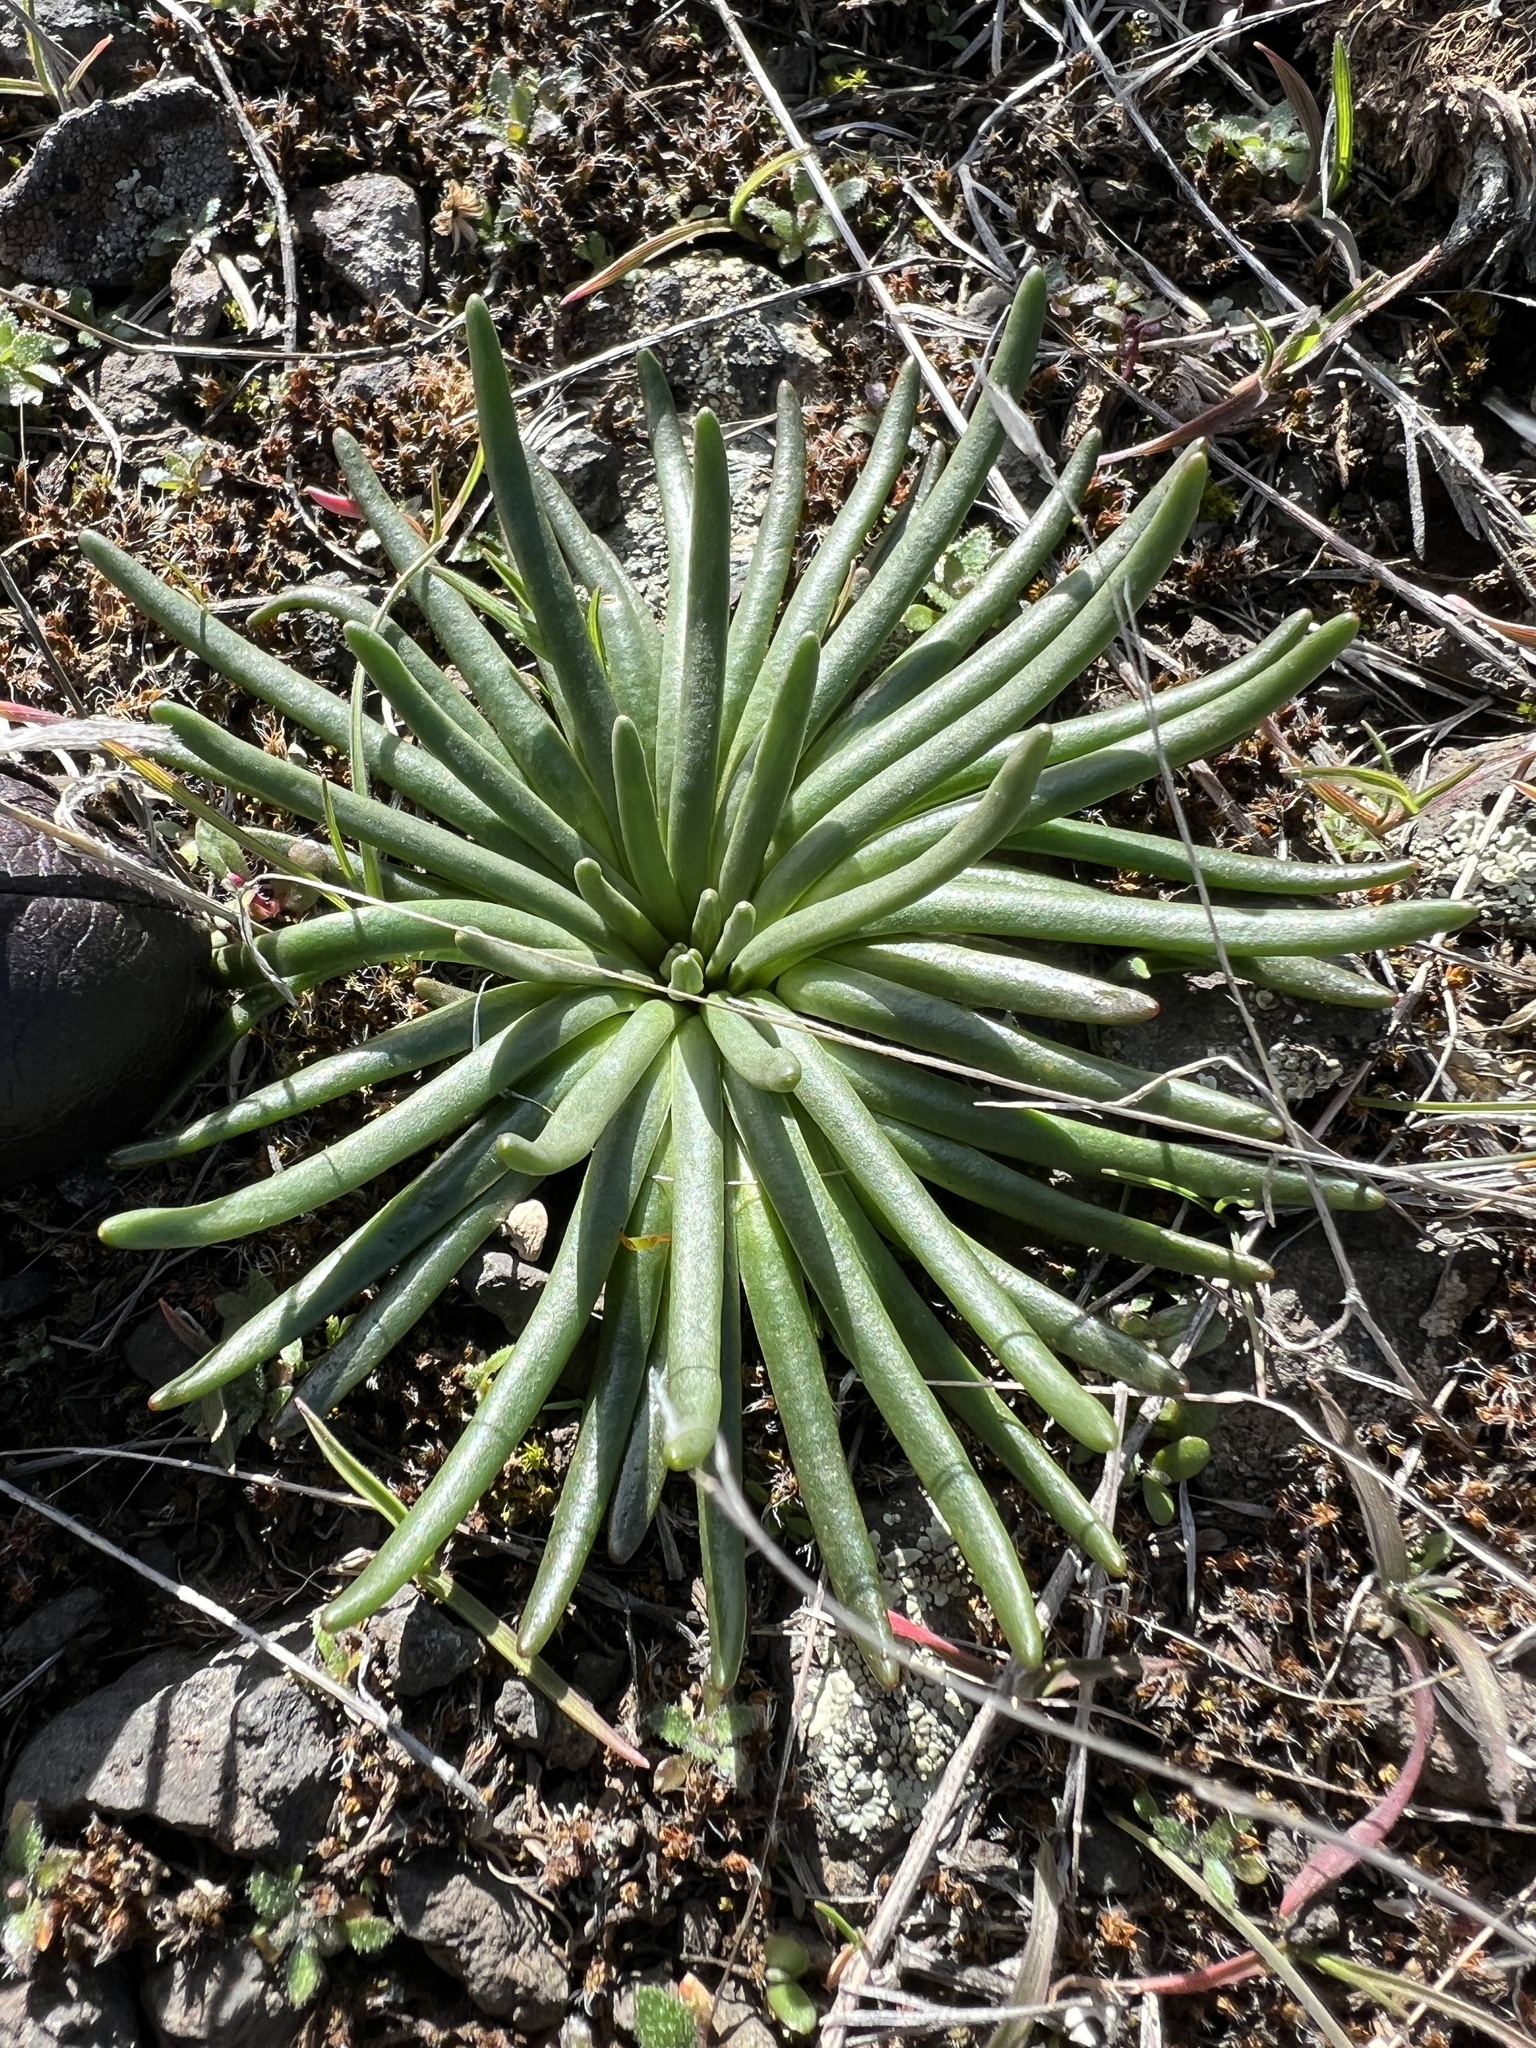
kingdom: Plantae
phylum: Tracheophyta
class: Magnoliopsida
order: Caryophyllales
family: Montiaceae
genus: Lewisia
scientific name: Lewisia rediviva
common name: Bitter-root
